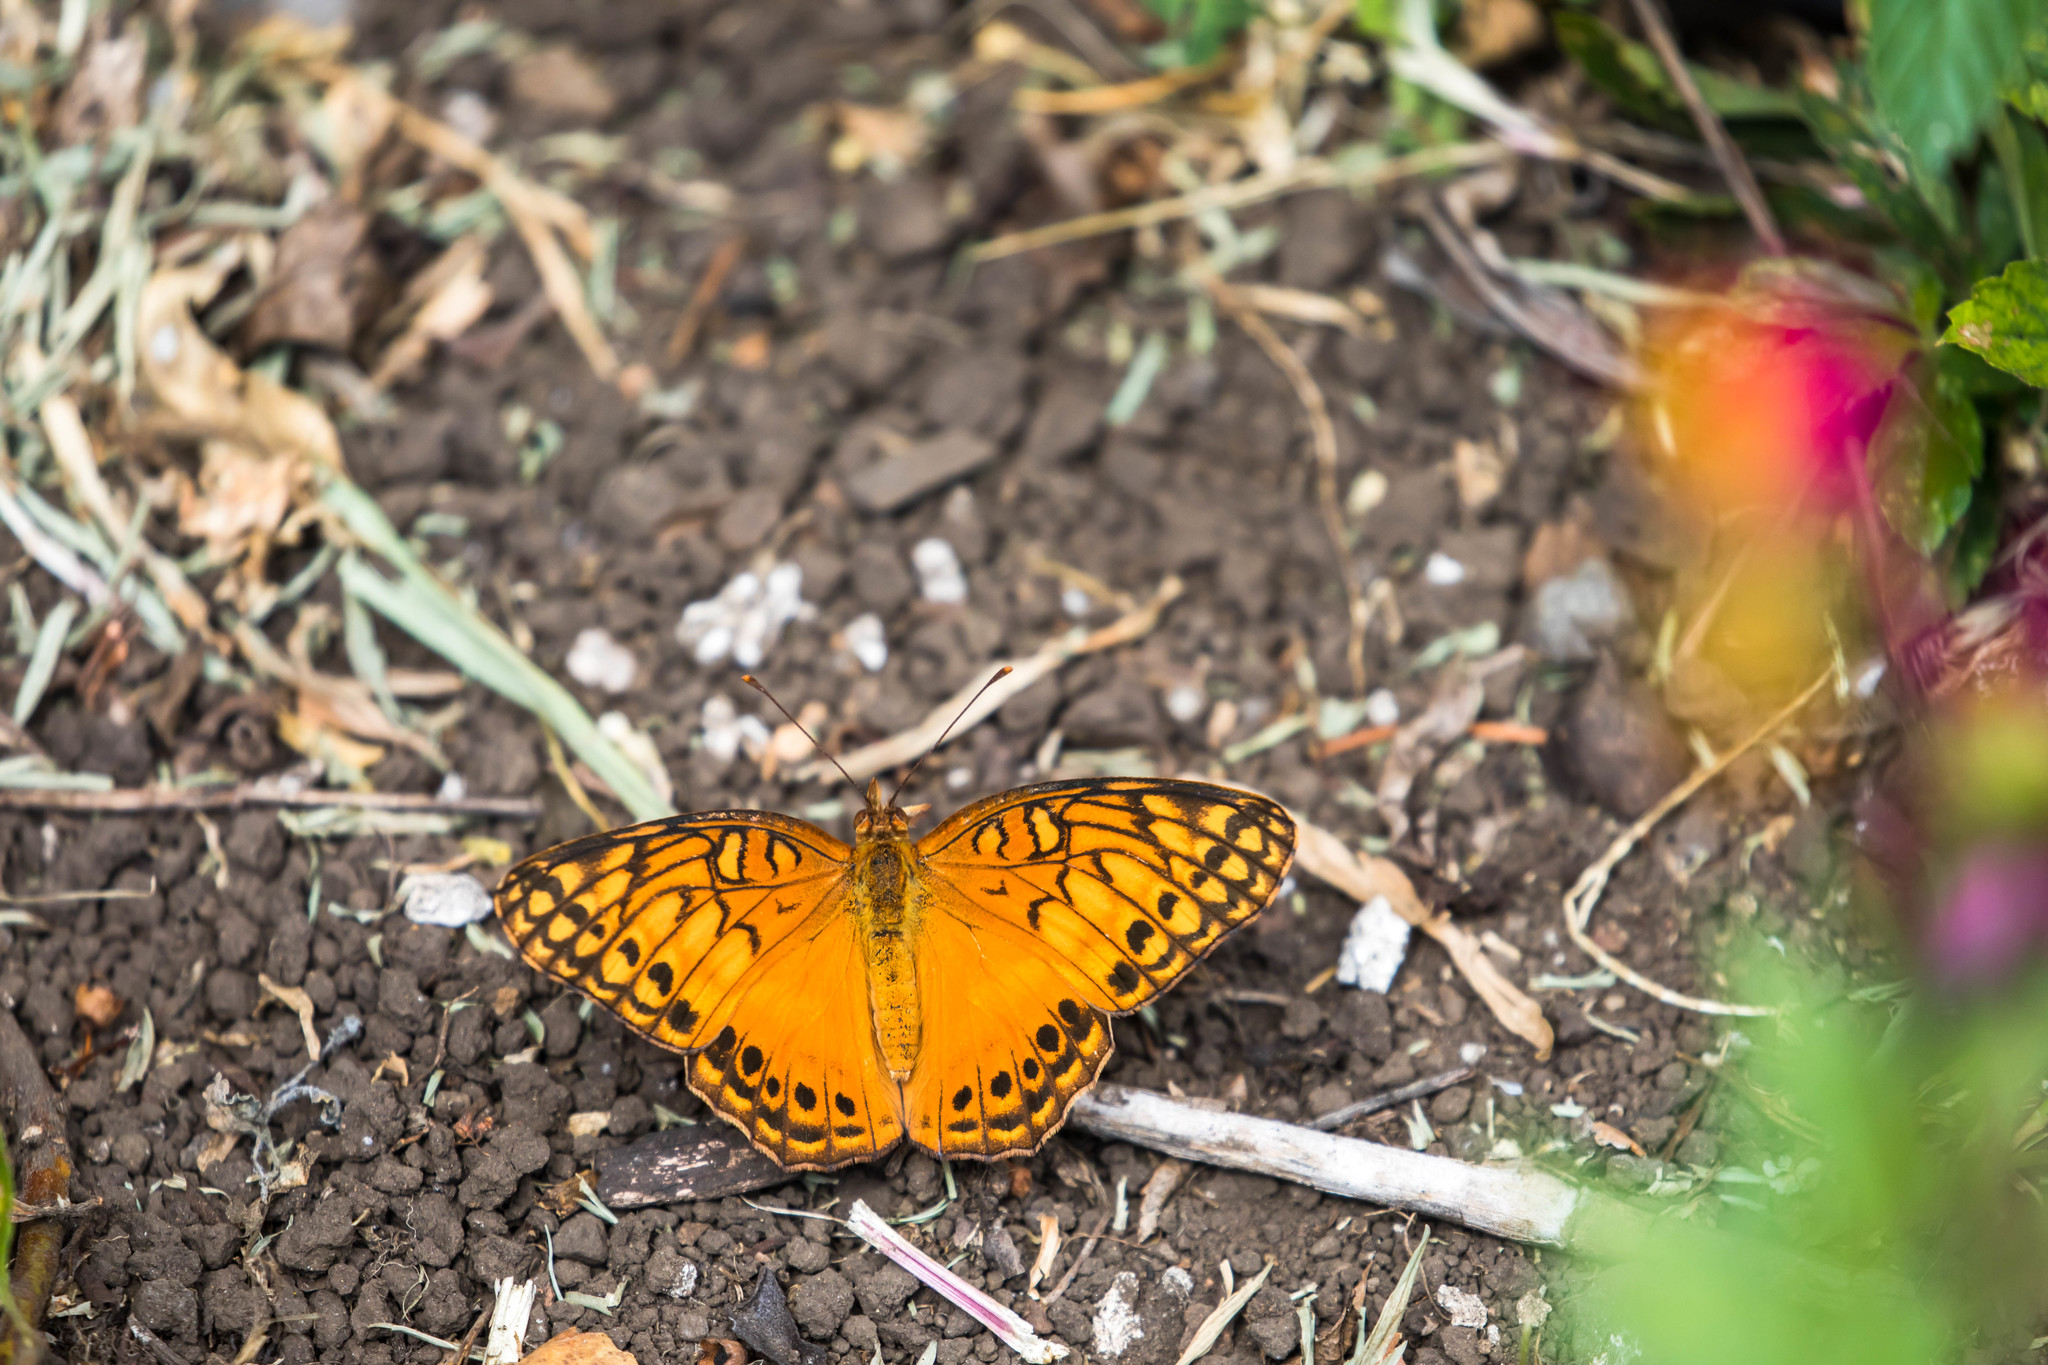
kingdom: Animalia
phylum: Arthropoda
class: Insecta
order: Lepidoptera
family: Nymphalidae
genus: Euptoieta
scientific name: Euptoieta hegesia
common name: Mexican fritillary
